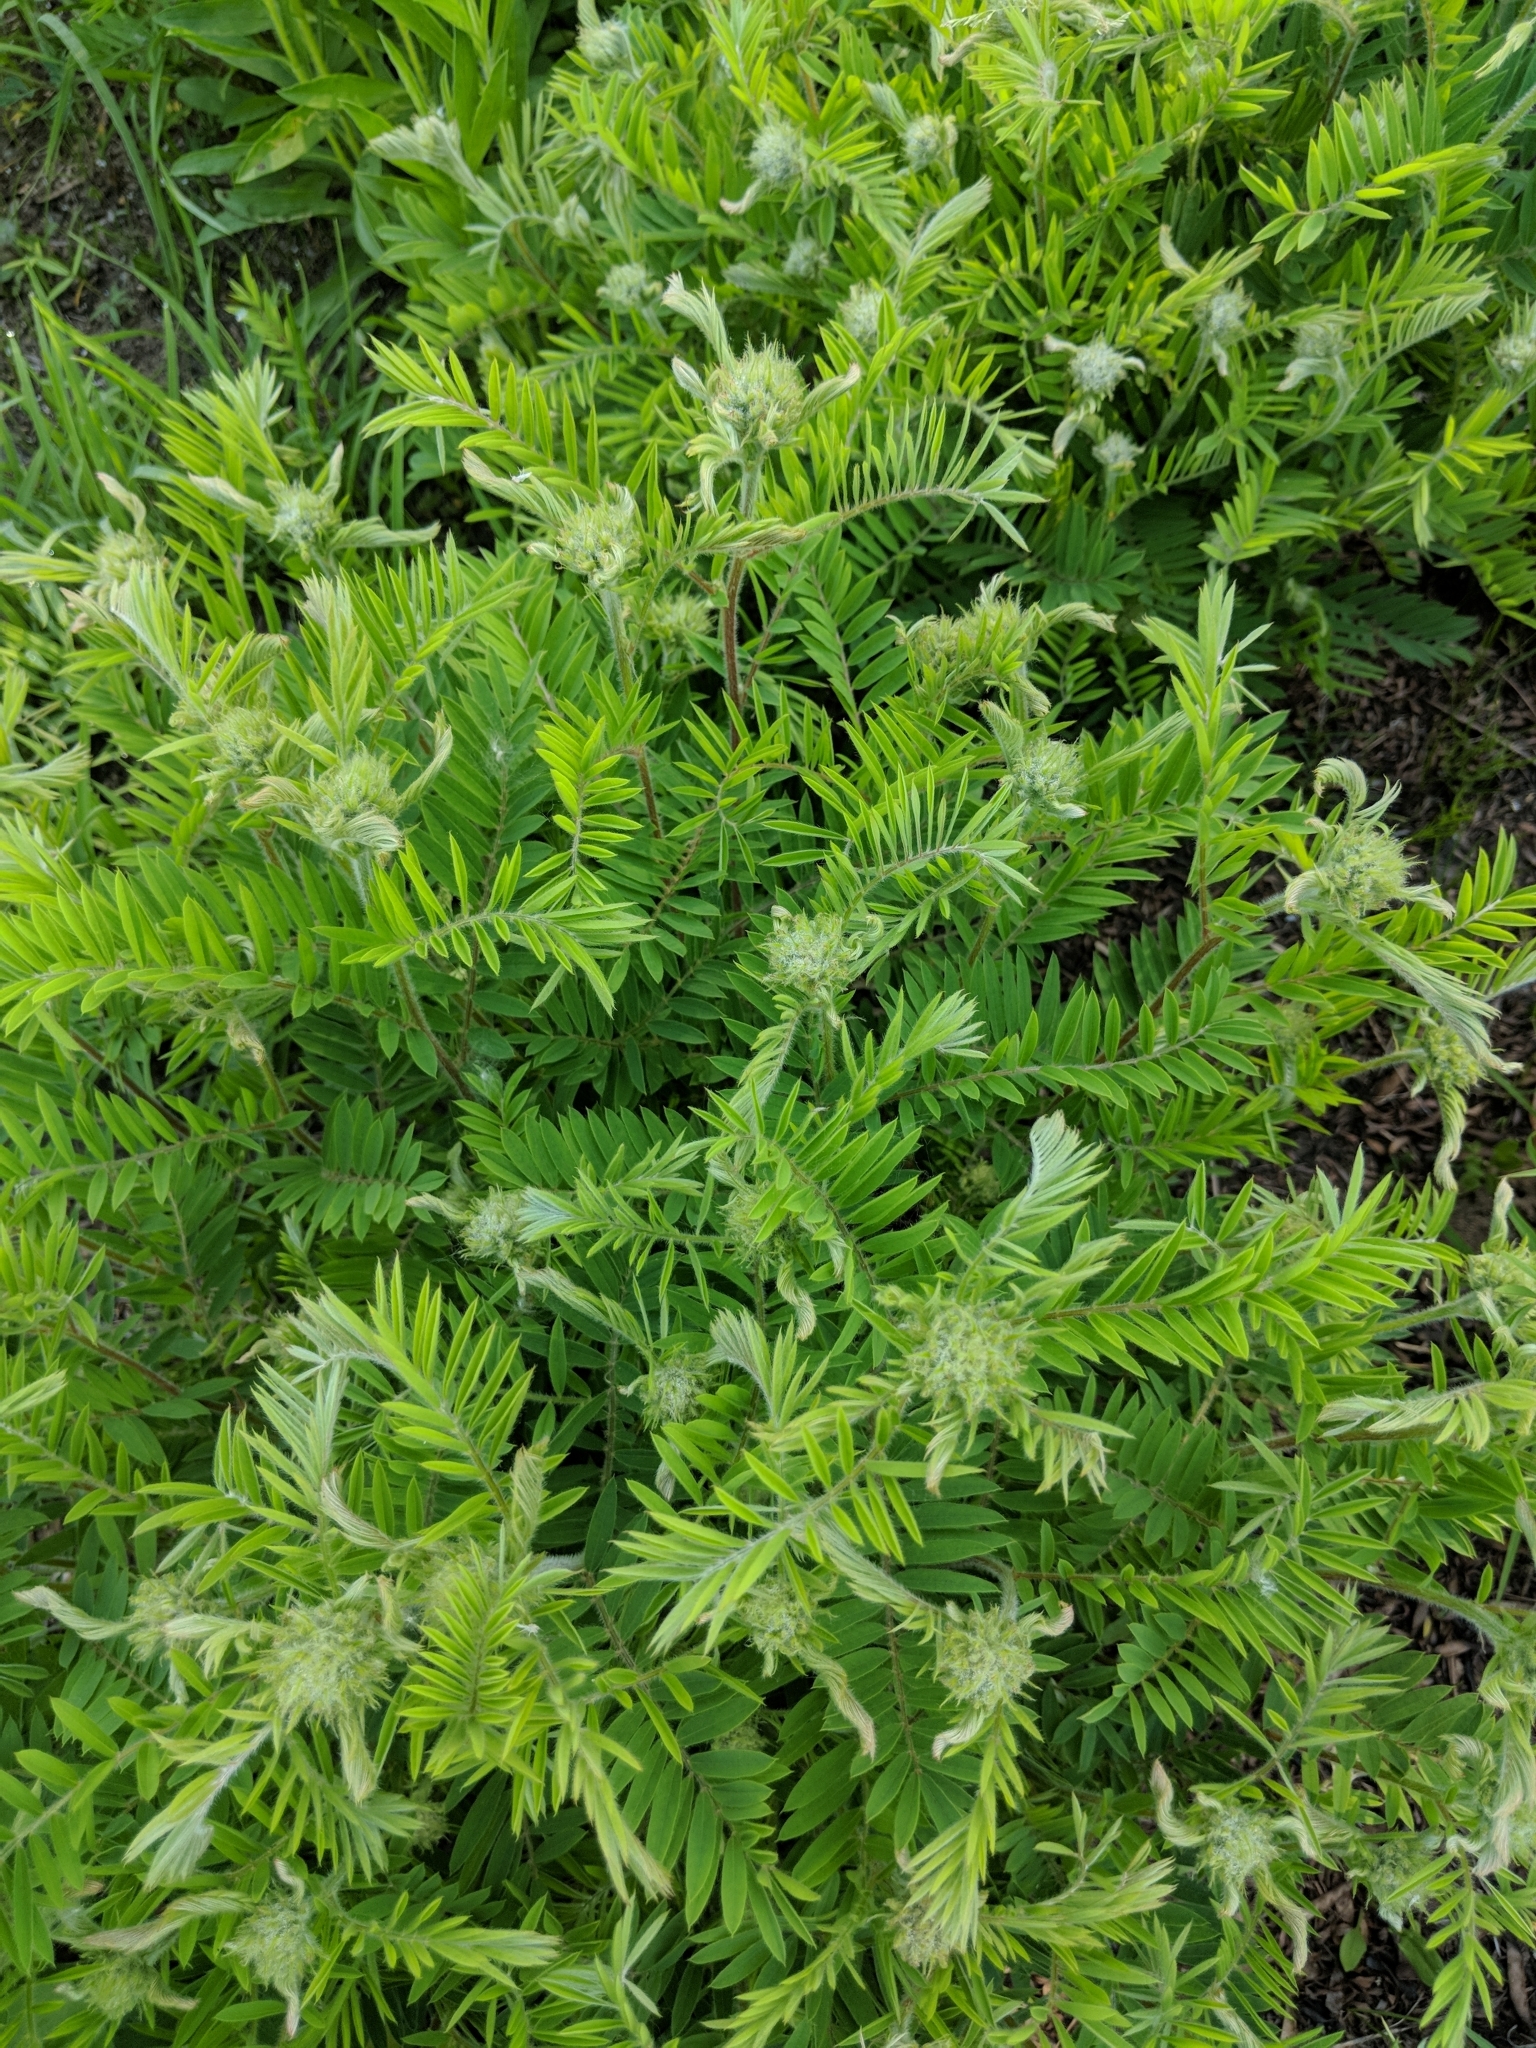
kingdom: Plantae
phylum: Tracheophyta
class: Magnoliopsida
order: Fabales
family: Fabaceae
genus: Tephrosia
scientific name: Tephrosia virginiana
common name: Rabbit-pea
